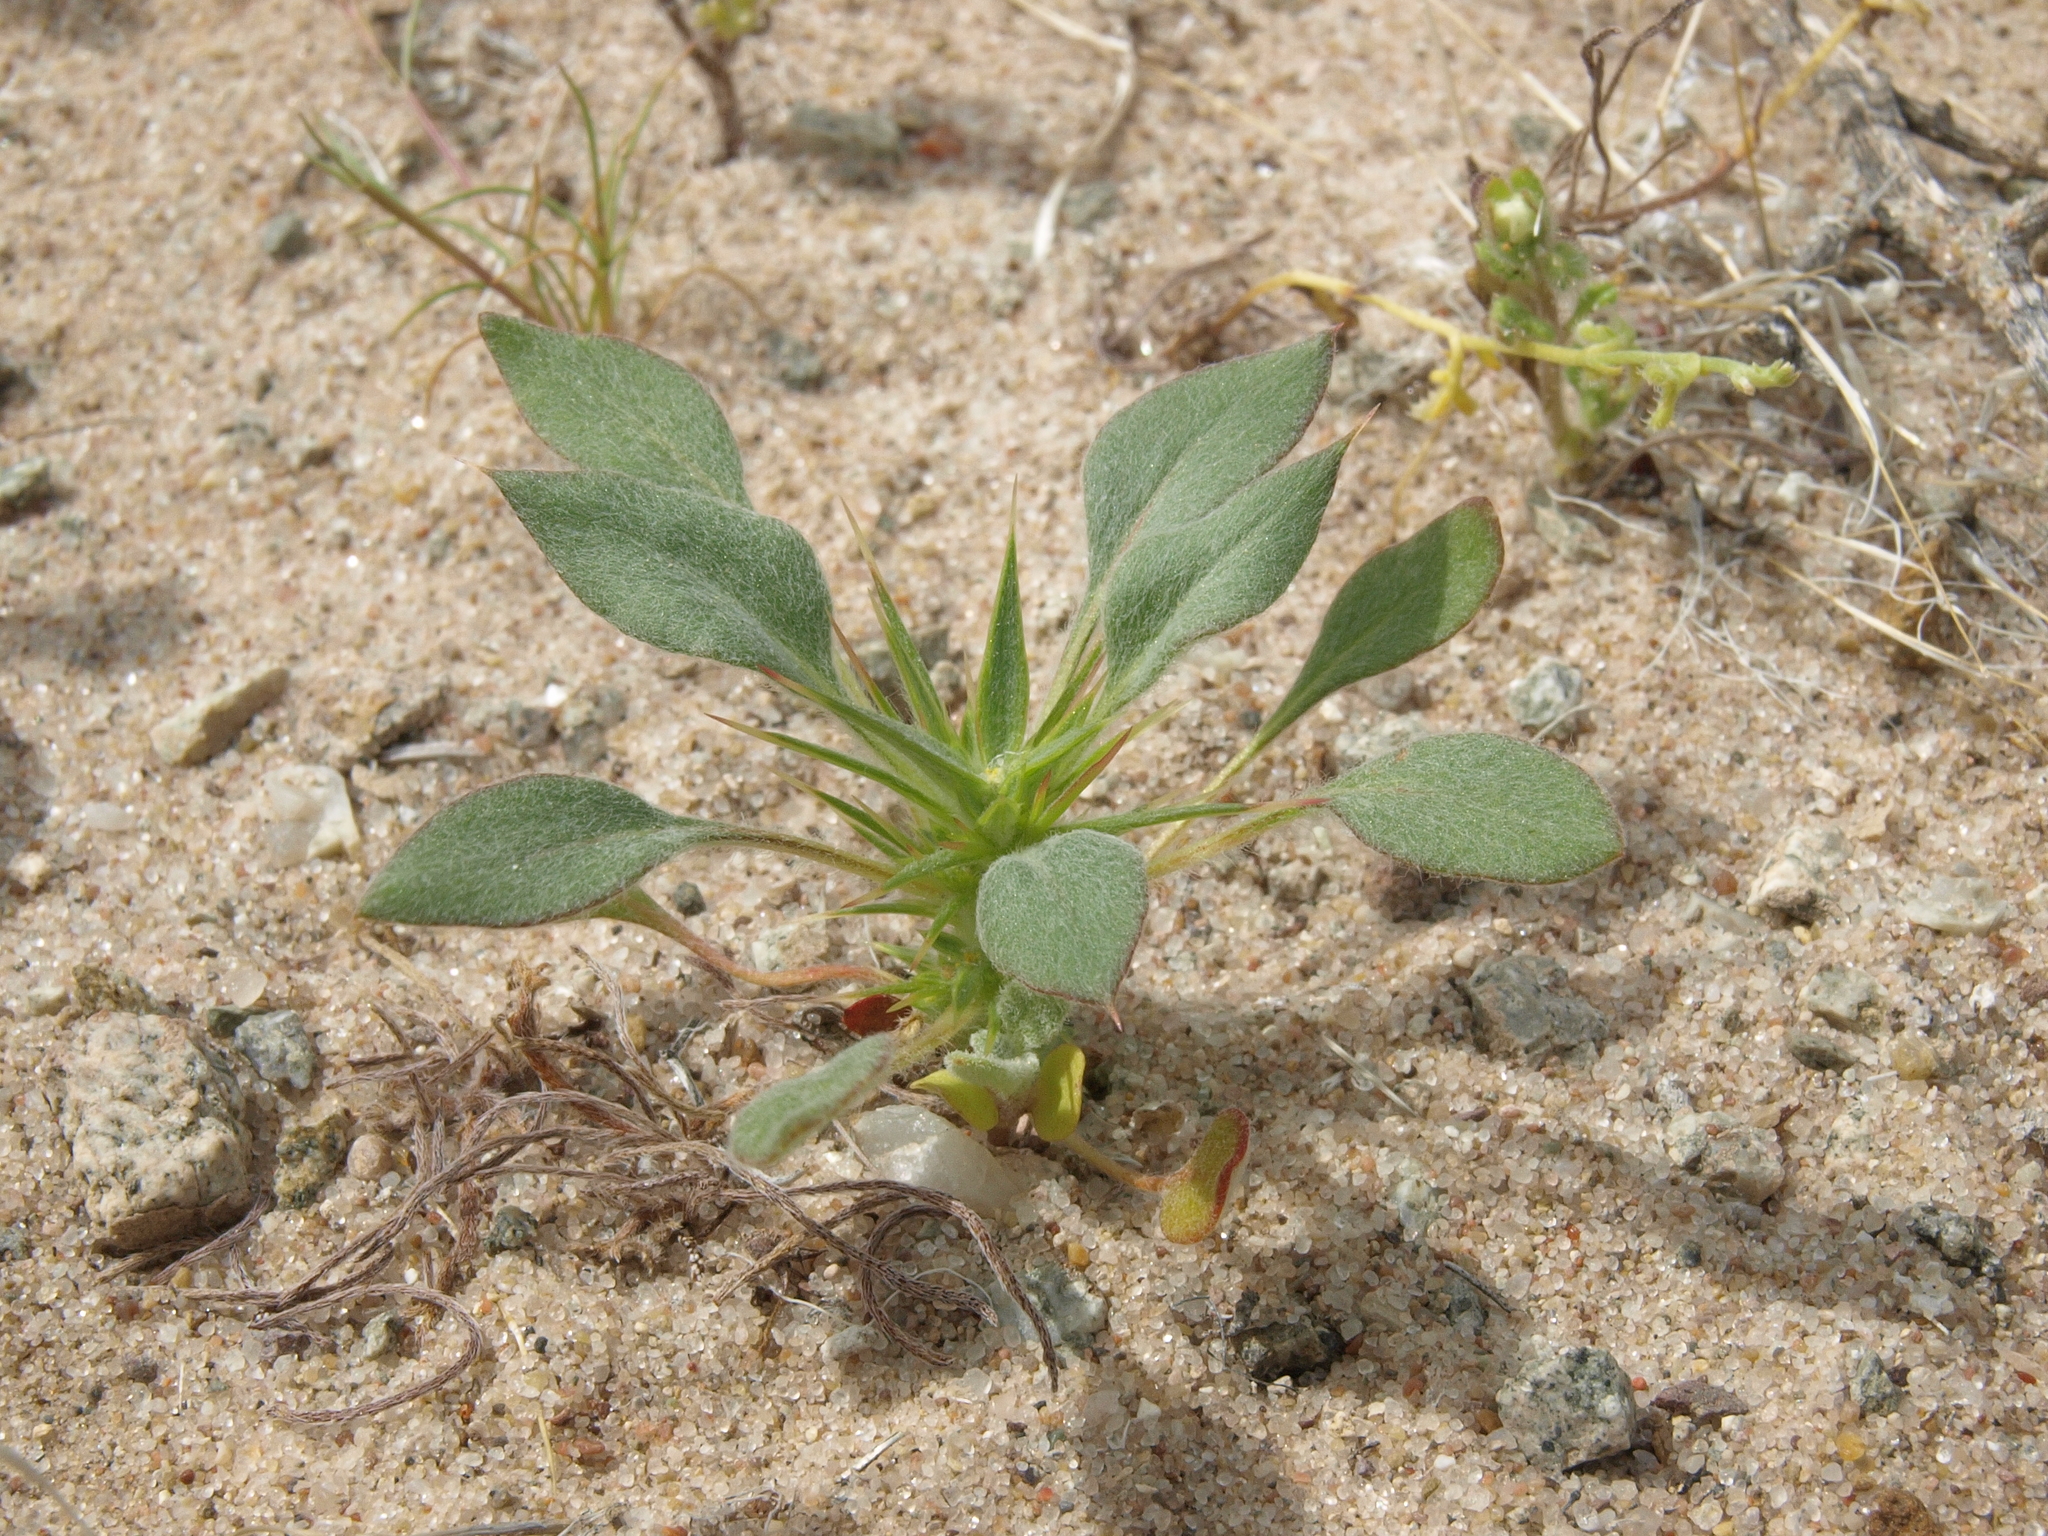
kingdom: Plantae
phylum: Tracheophyta
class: Magnoliopsida
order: Caryophyllales
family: Polygonaceae
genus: Chorizanthe
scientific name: Chorizanthe rigida
